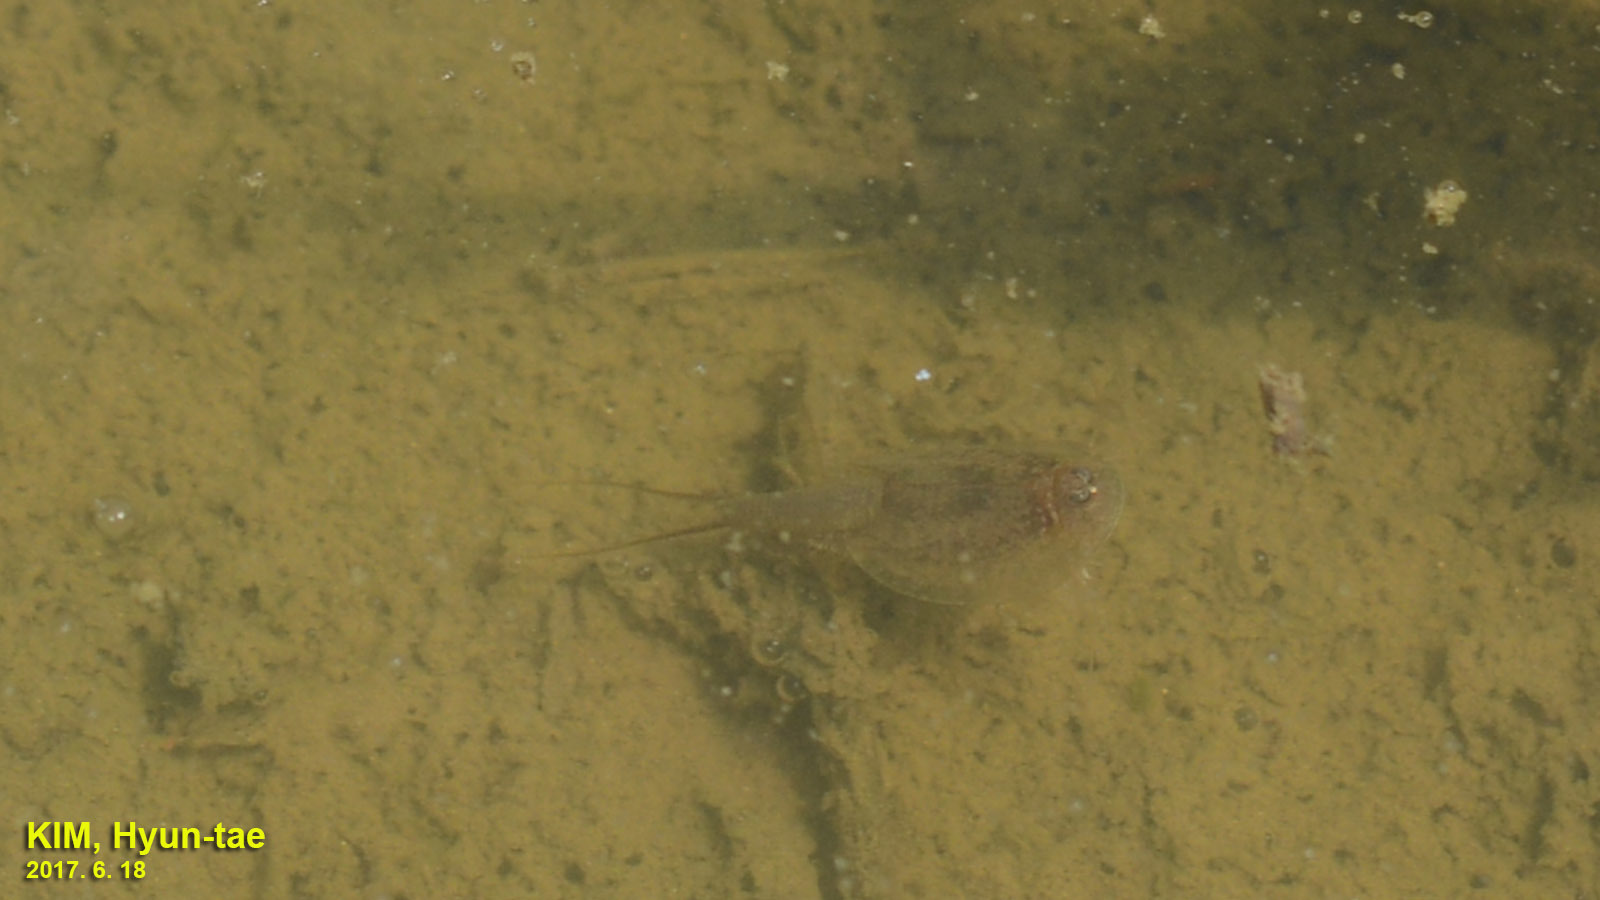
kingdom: Animalia
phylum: Arthropoda
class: Branchiopoda
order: Notostraca
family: Triopsidae
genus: Triops
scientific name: Triops granarius
